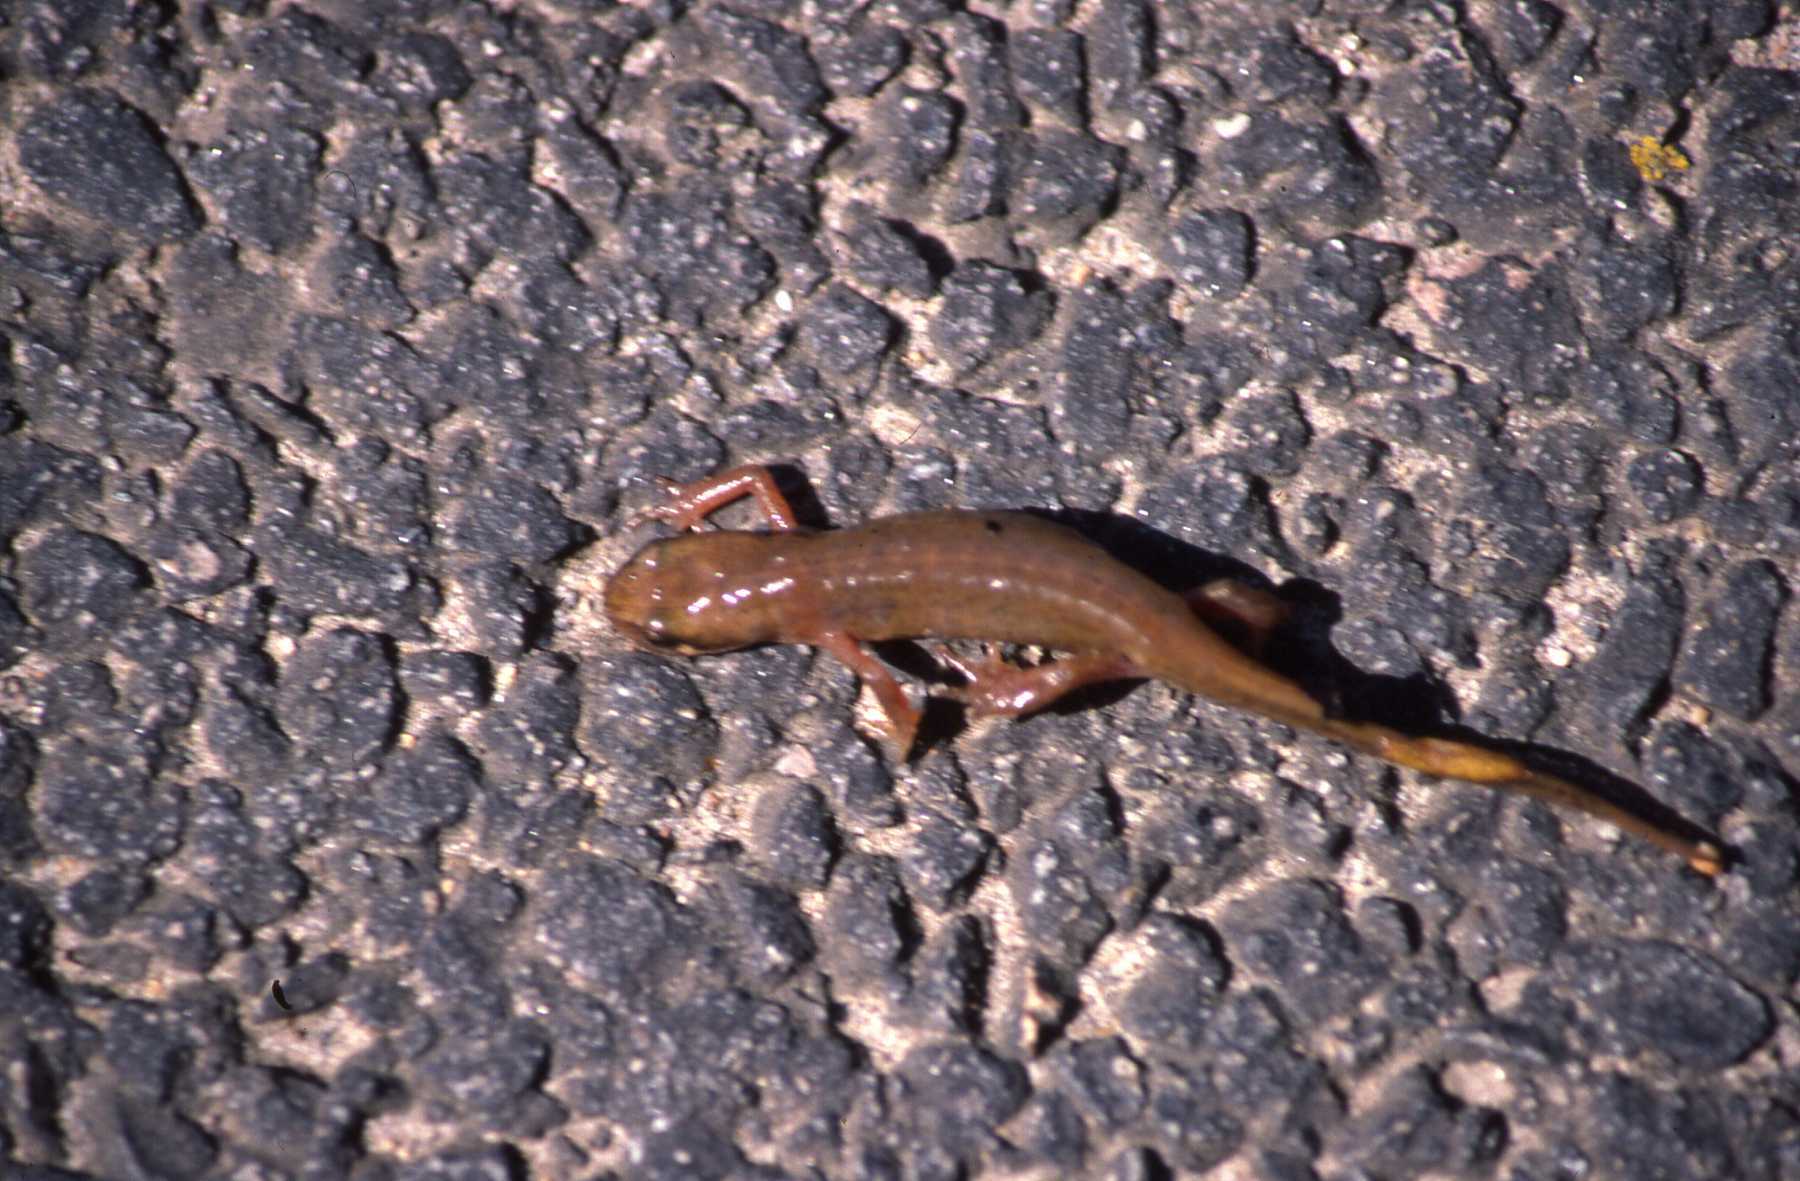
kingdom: Animalia
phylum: Chordata
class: Amphibia
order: Caudata
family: Salamandridae
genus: Lissotriton
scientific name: Lissotriton helveticus
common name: Palmate newt
